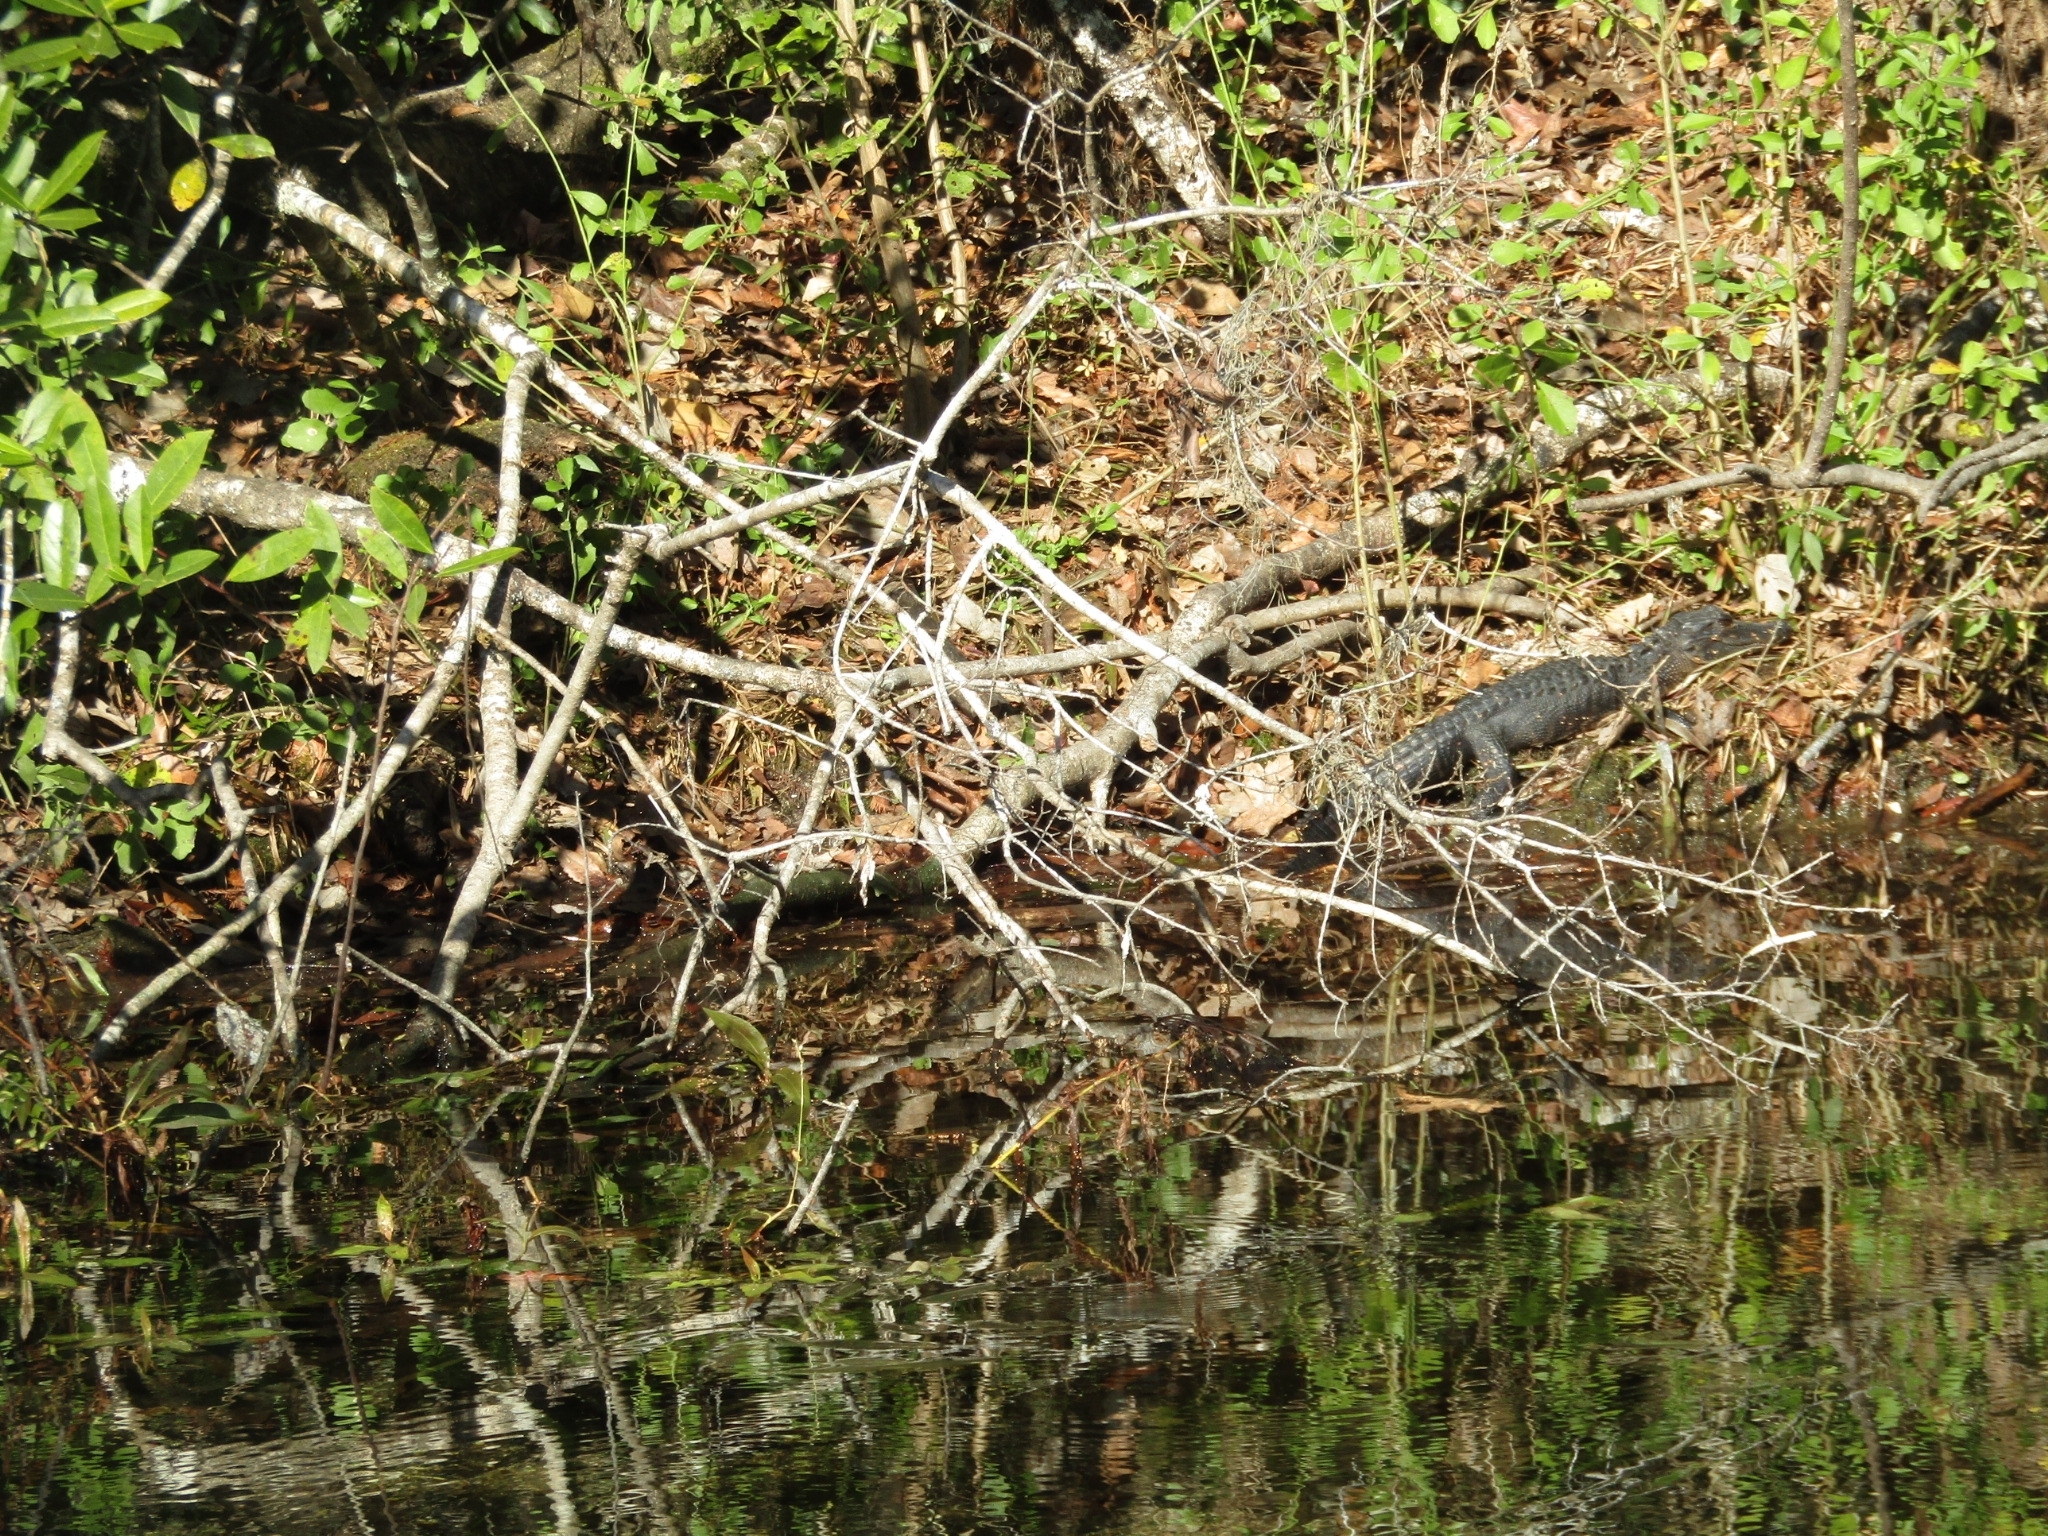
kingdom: Animalia
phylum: Chordata
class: Crocodylia
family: Alligatoridae
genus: Alligator
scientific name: Alligator mississippiensis
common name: American alligator
